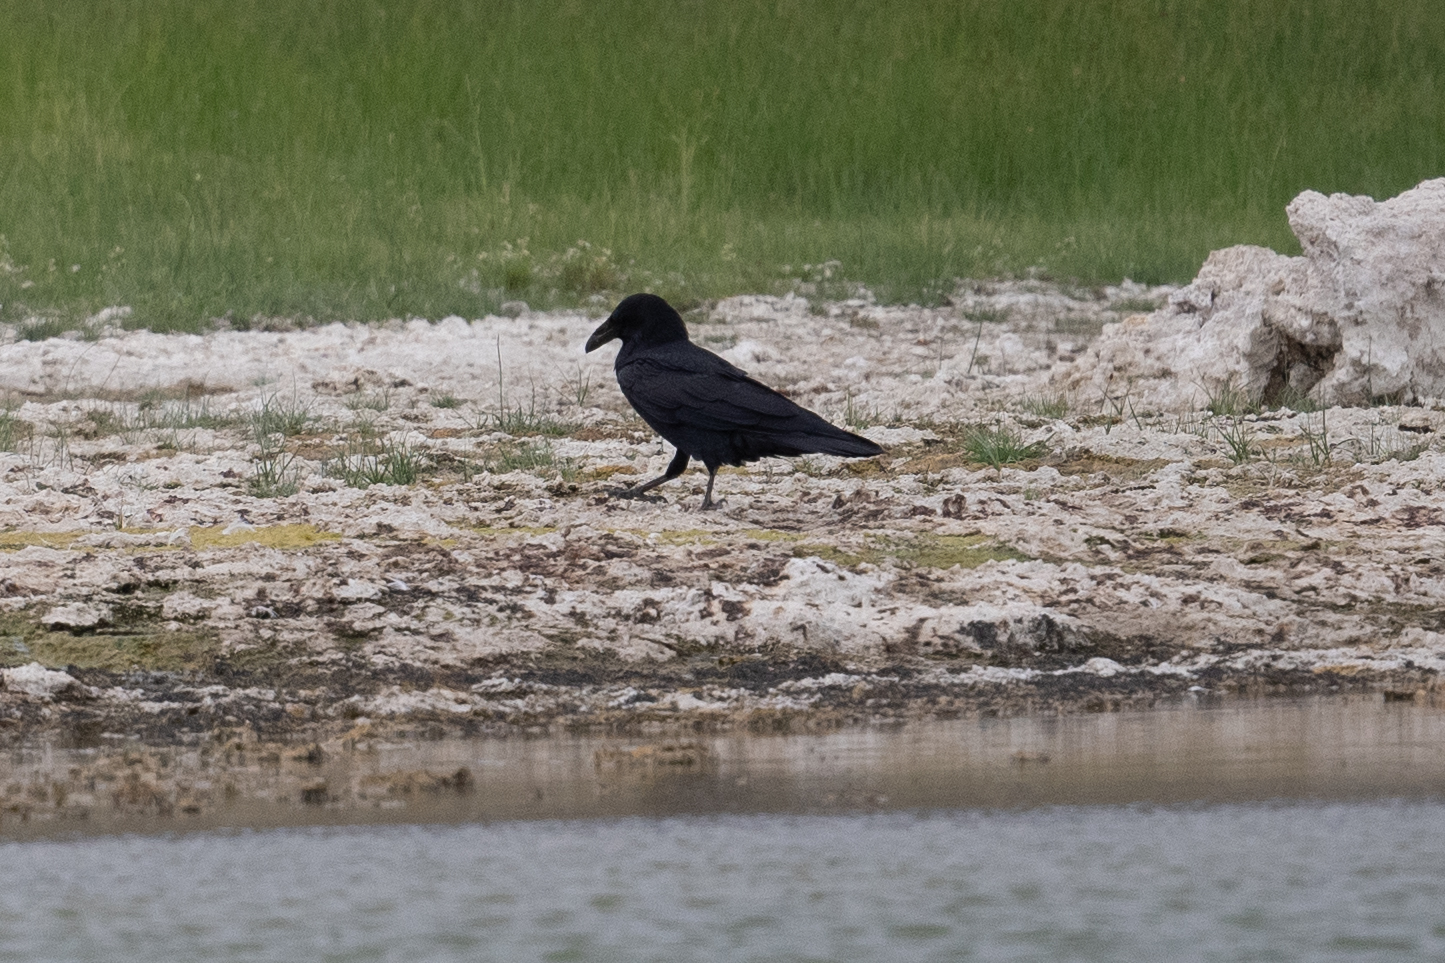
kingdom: Animalia
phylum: Chordata
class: Aves
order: Passeriformes
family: Corvidae
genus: Corvus
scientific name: Corvus corax
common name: Common raven
